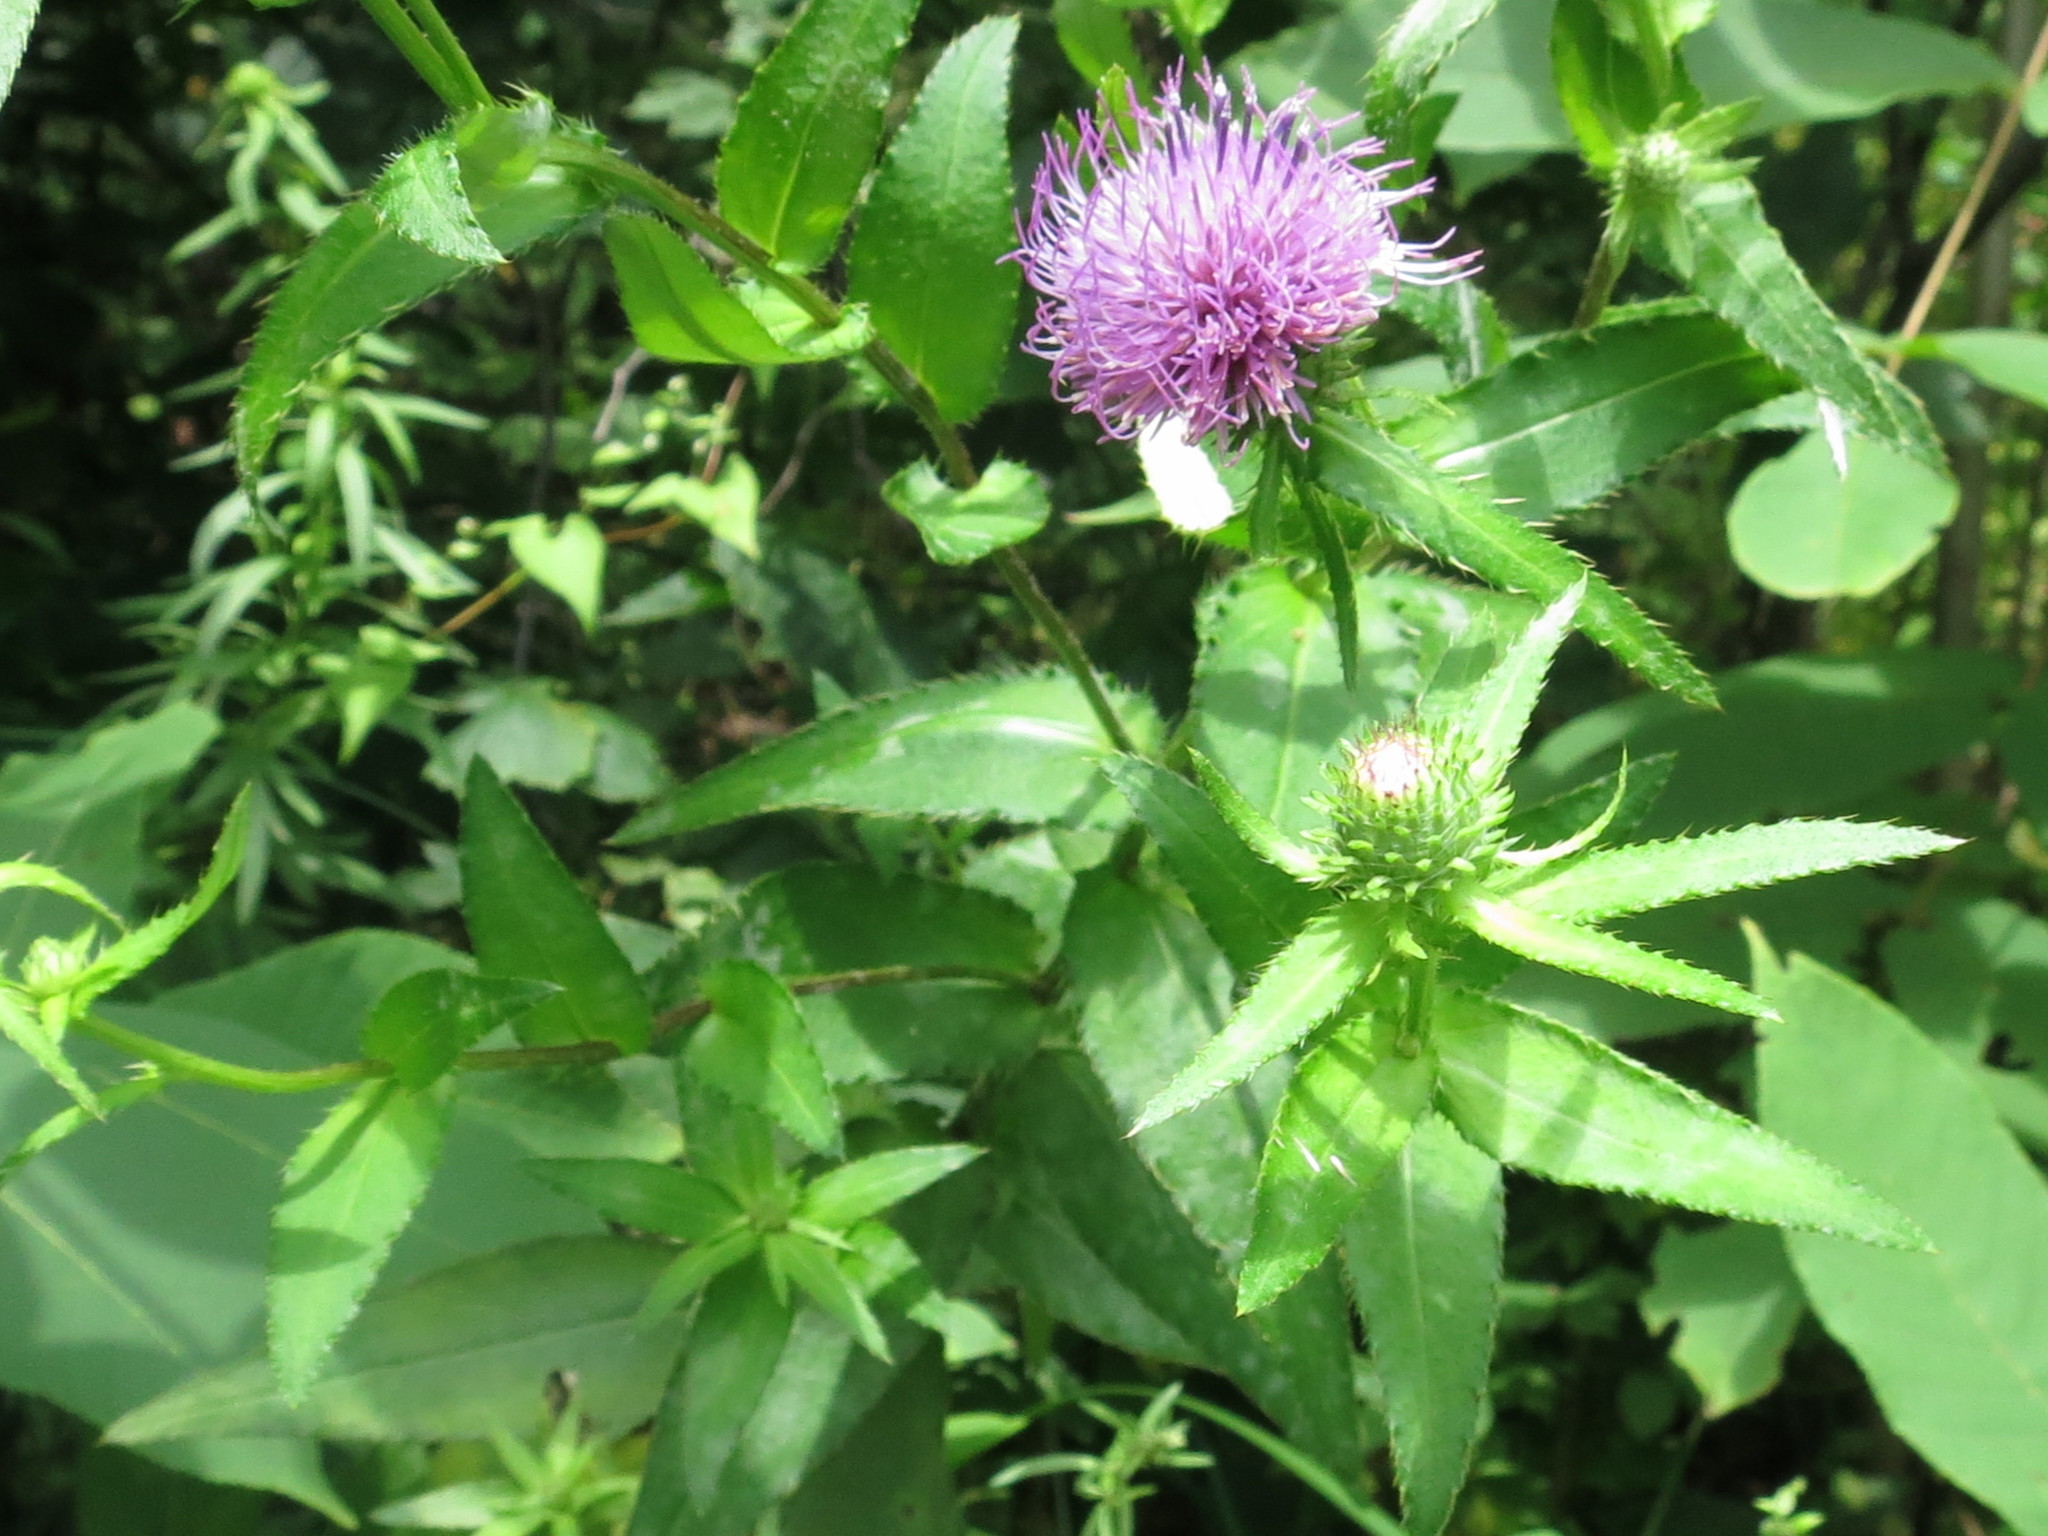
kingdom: Plantae
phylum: Tracheophyta
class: Magnoliopsida
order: Asterales
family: Asteraceae
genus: Cirsium
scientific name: Cirsium vlassovianum
